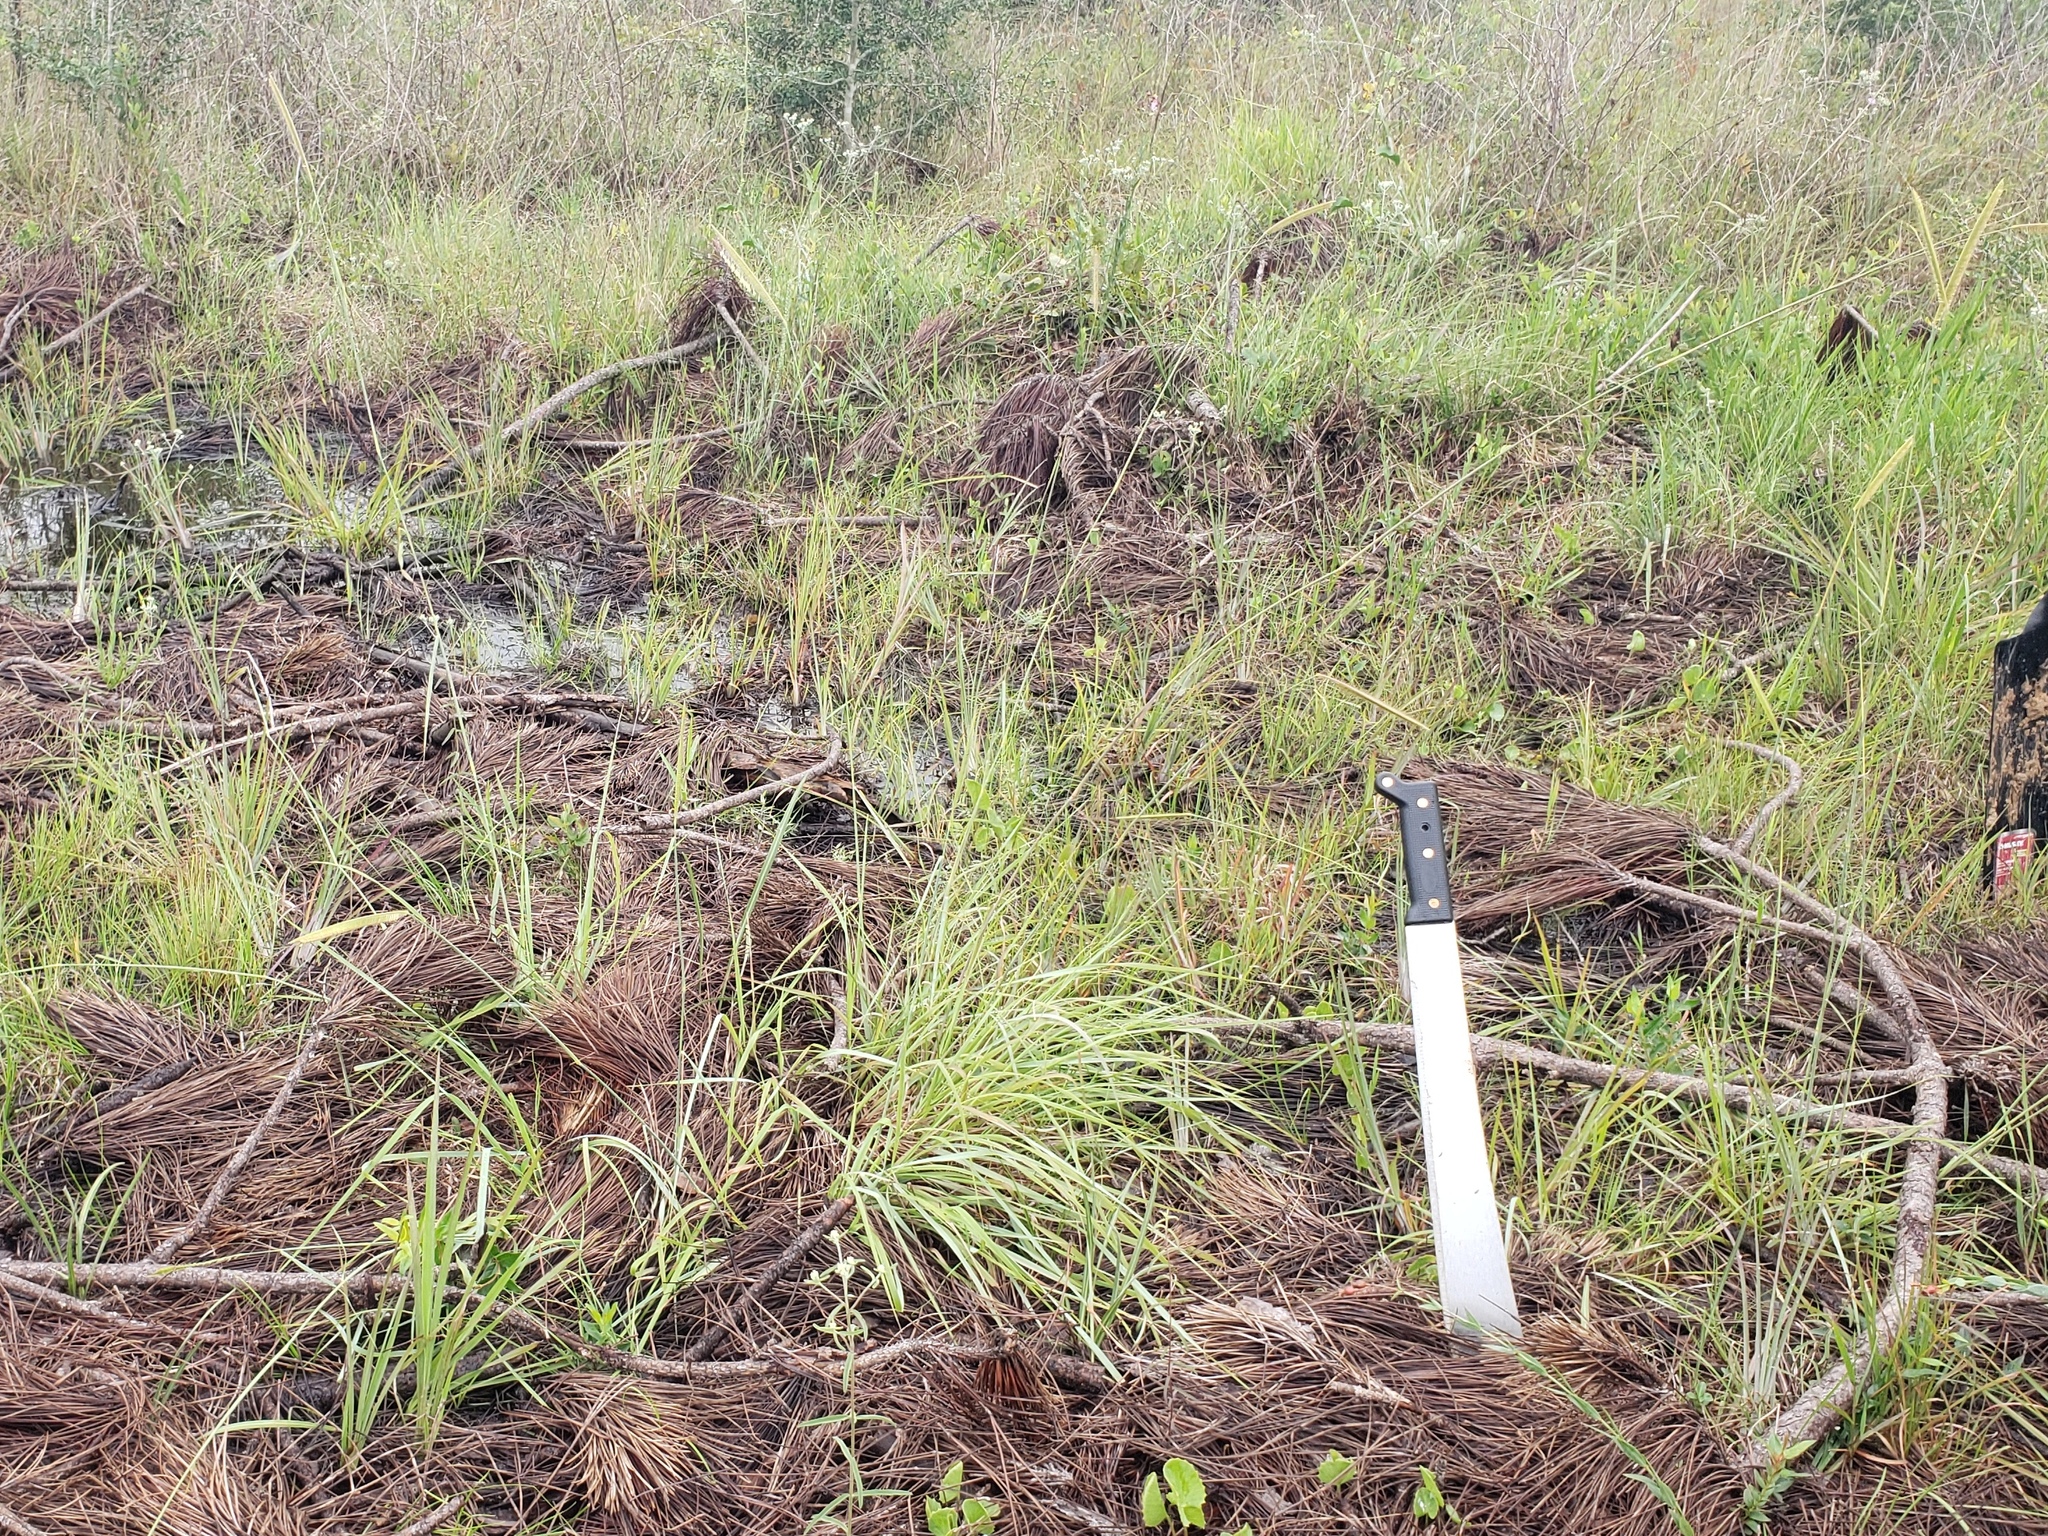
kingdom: Plantae
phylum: Tracheophyta
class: Liliopsida
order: Poales
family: Poaceae
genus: Ctenium
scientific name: Ctenium aromaticum
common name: Toothache grass
